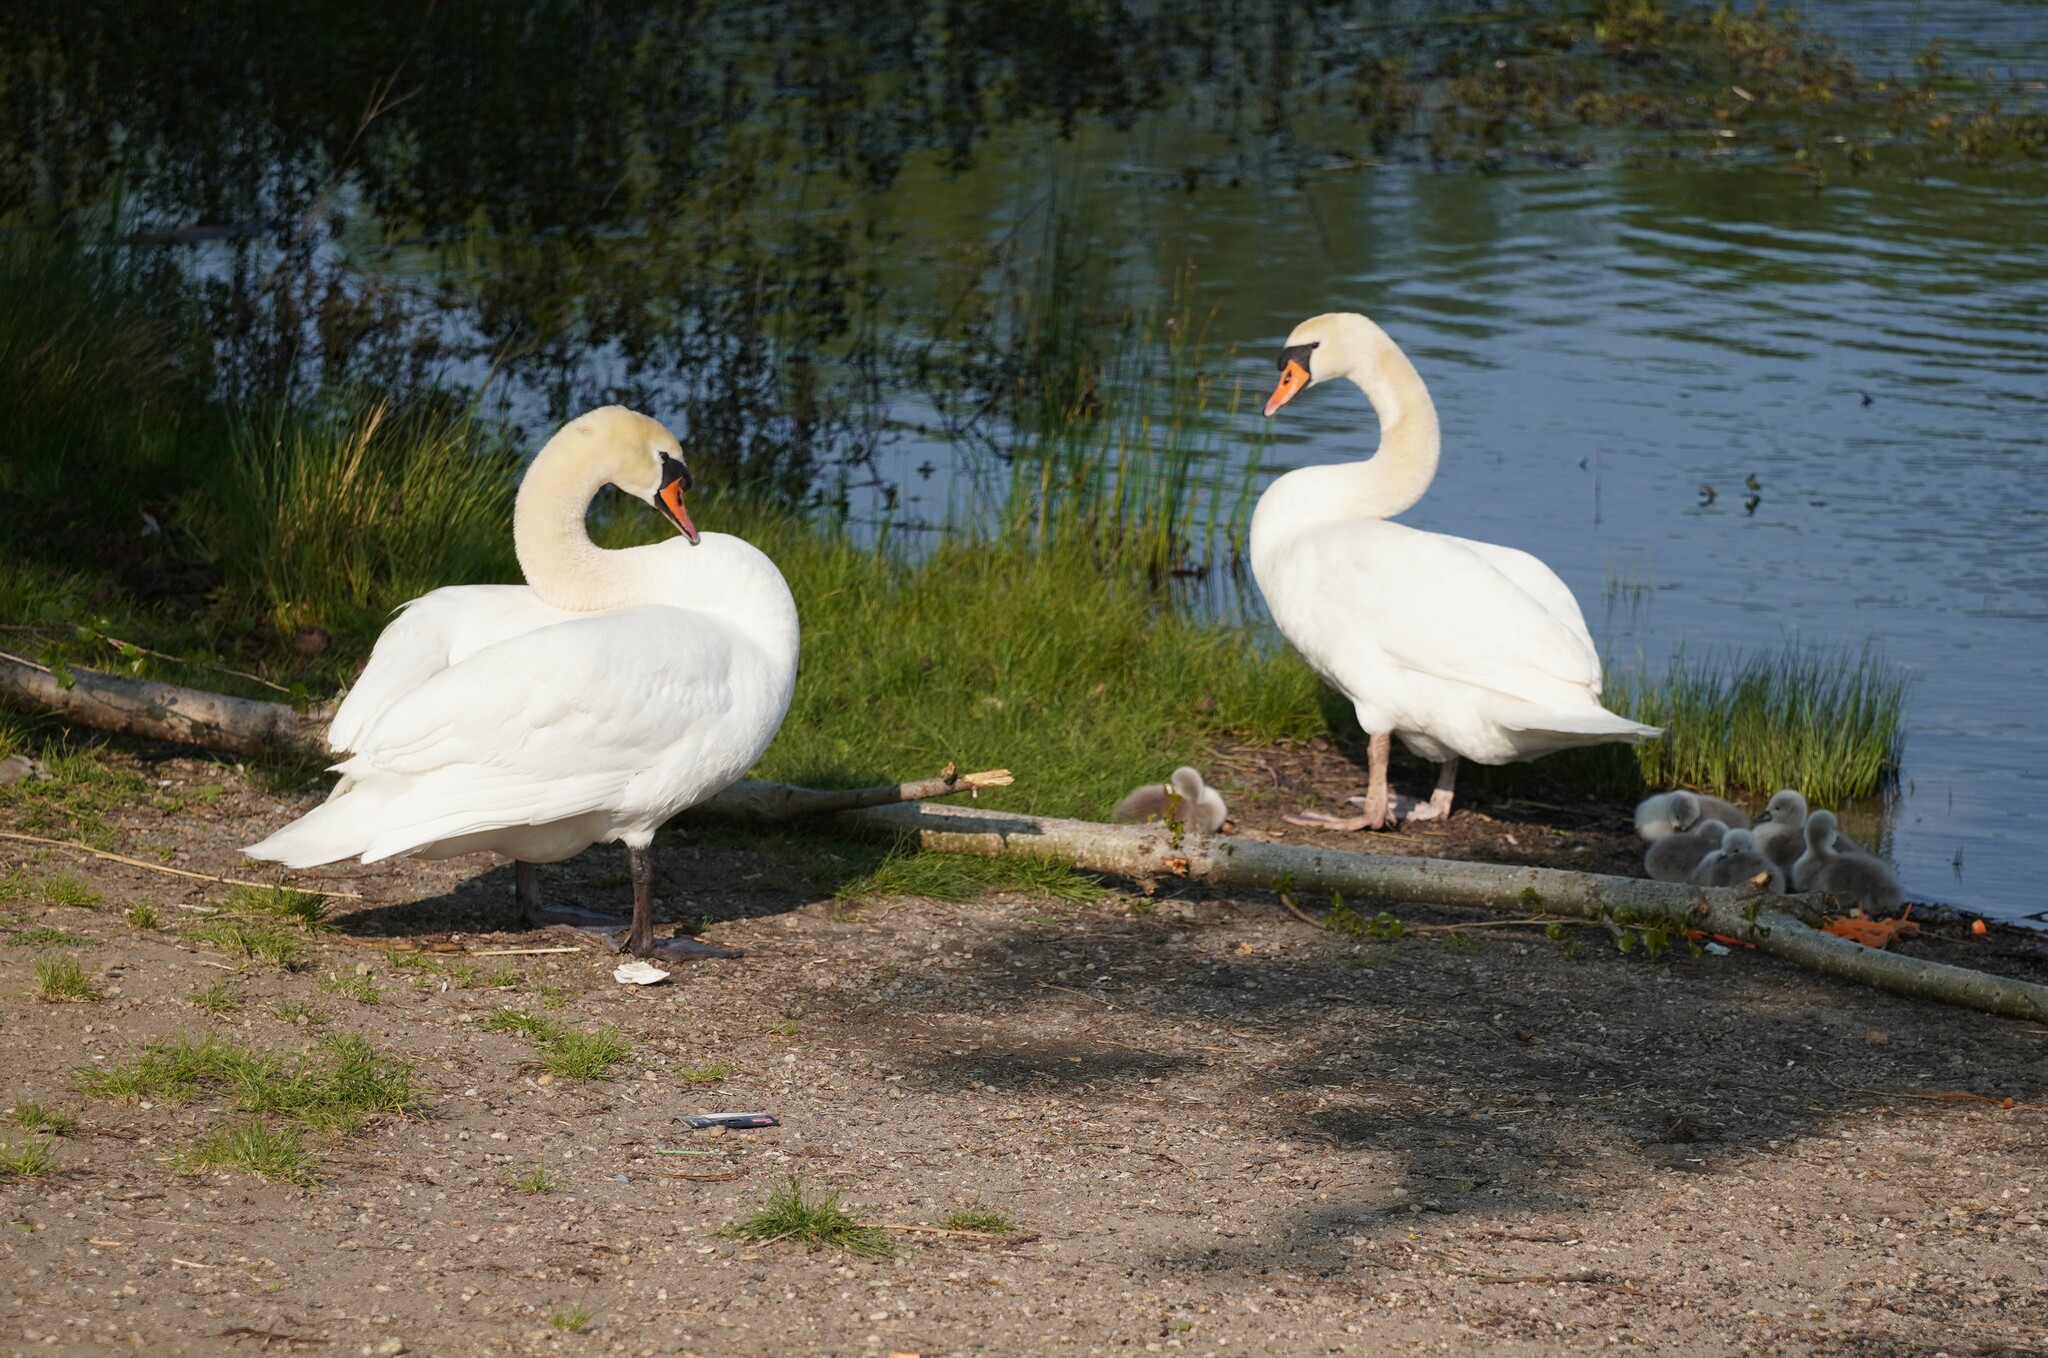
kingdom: Animalia
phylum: Chordata
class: Aves
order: Anseriformes
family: Anatidae
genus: Cygnus
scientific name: Cygnus olor
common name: Mute swan
